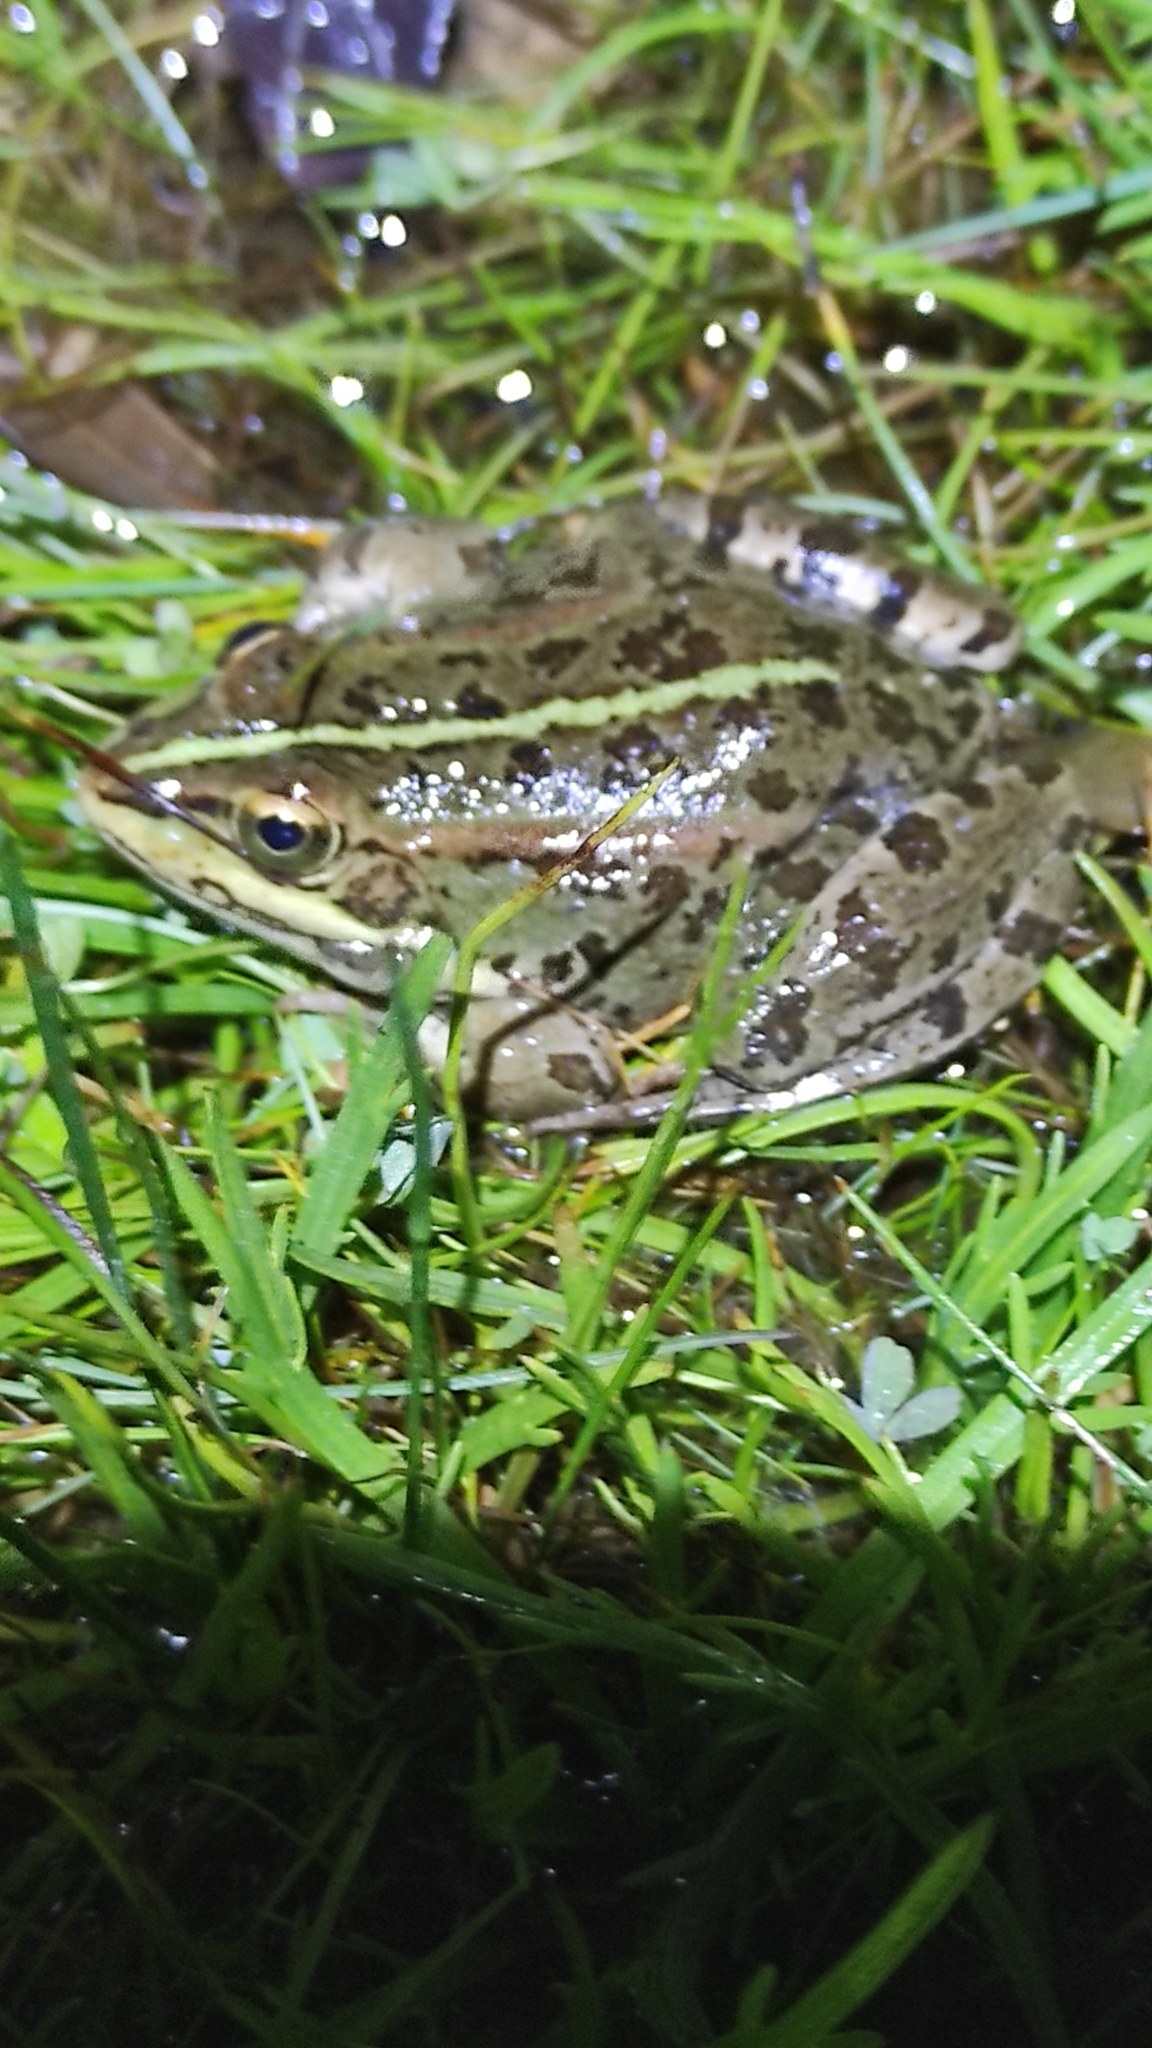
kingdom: Animalia
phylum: Chordata
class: Amphibia
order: Anura
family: Ranidae
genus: Pelophylax
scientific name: Pelophylax perezi
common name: Perez's frog
